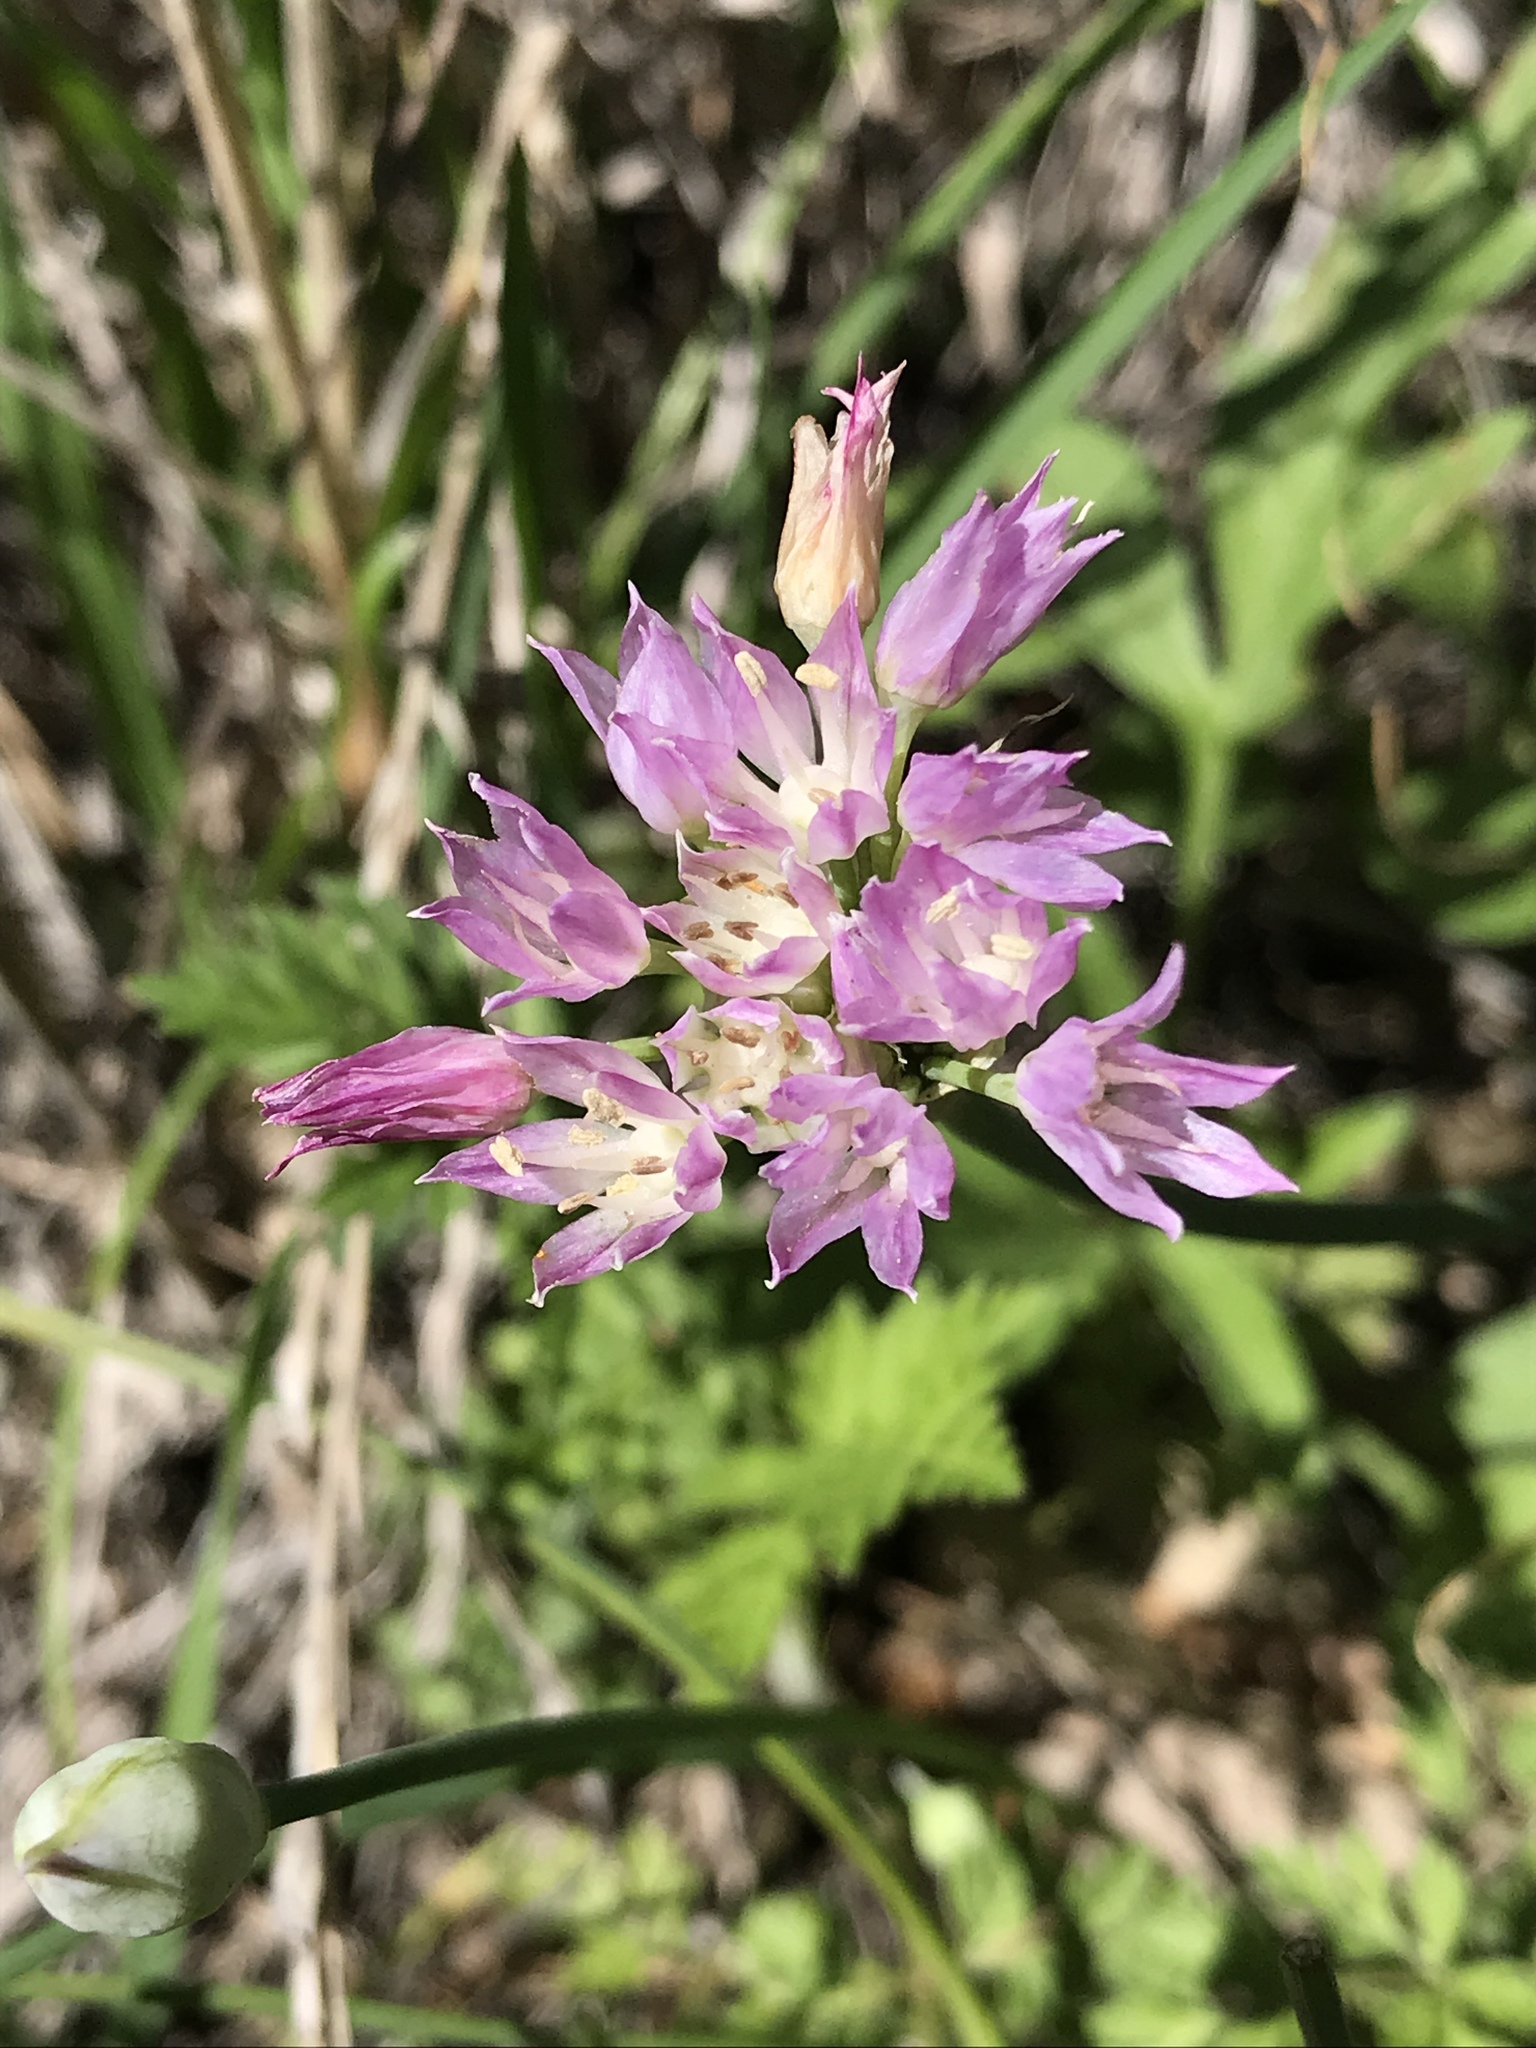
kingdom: Plantae
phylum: Tracheophyta
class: Liliopsida
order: Asparagales
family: Amaryllidaceae
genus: Allium
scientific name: Allium drummondii
